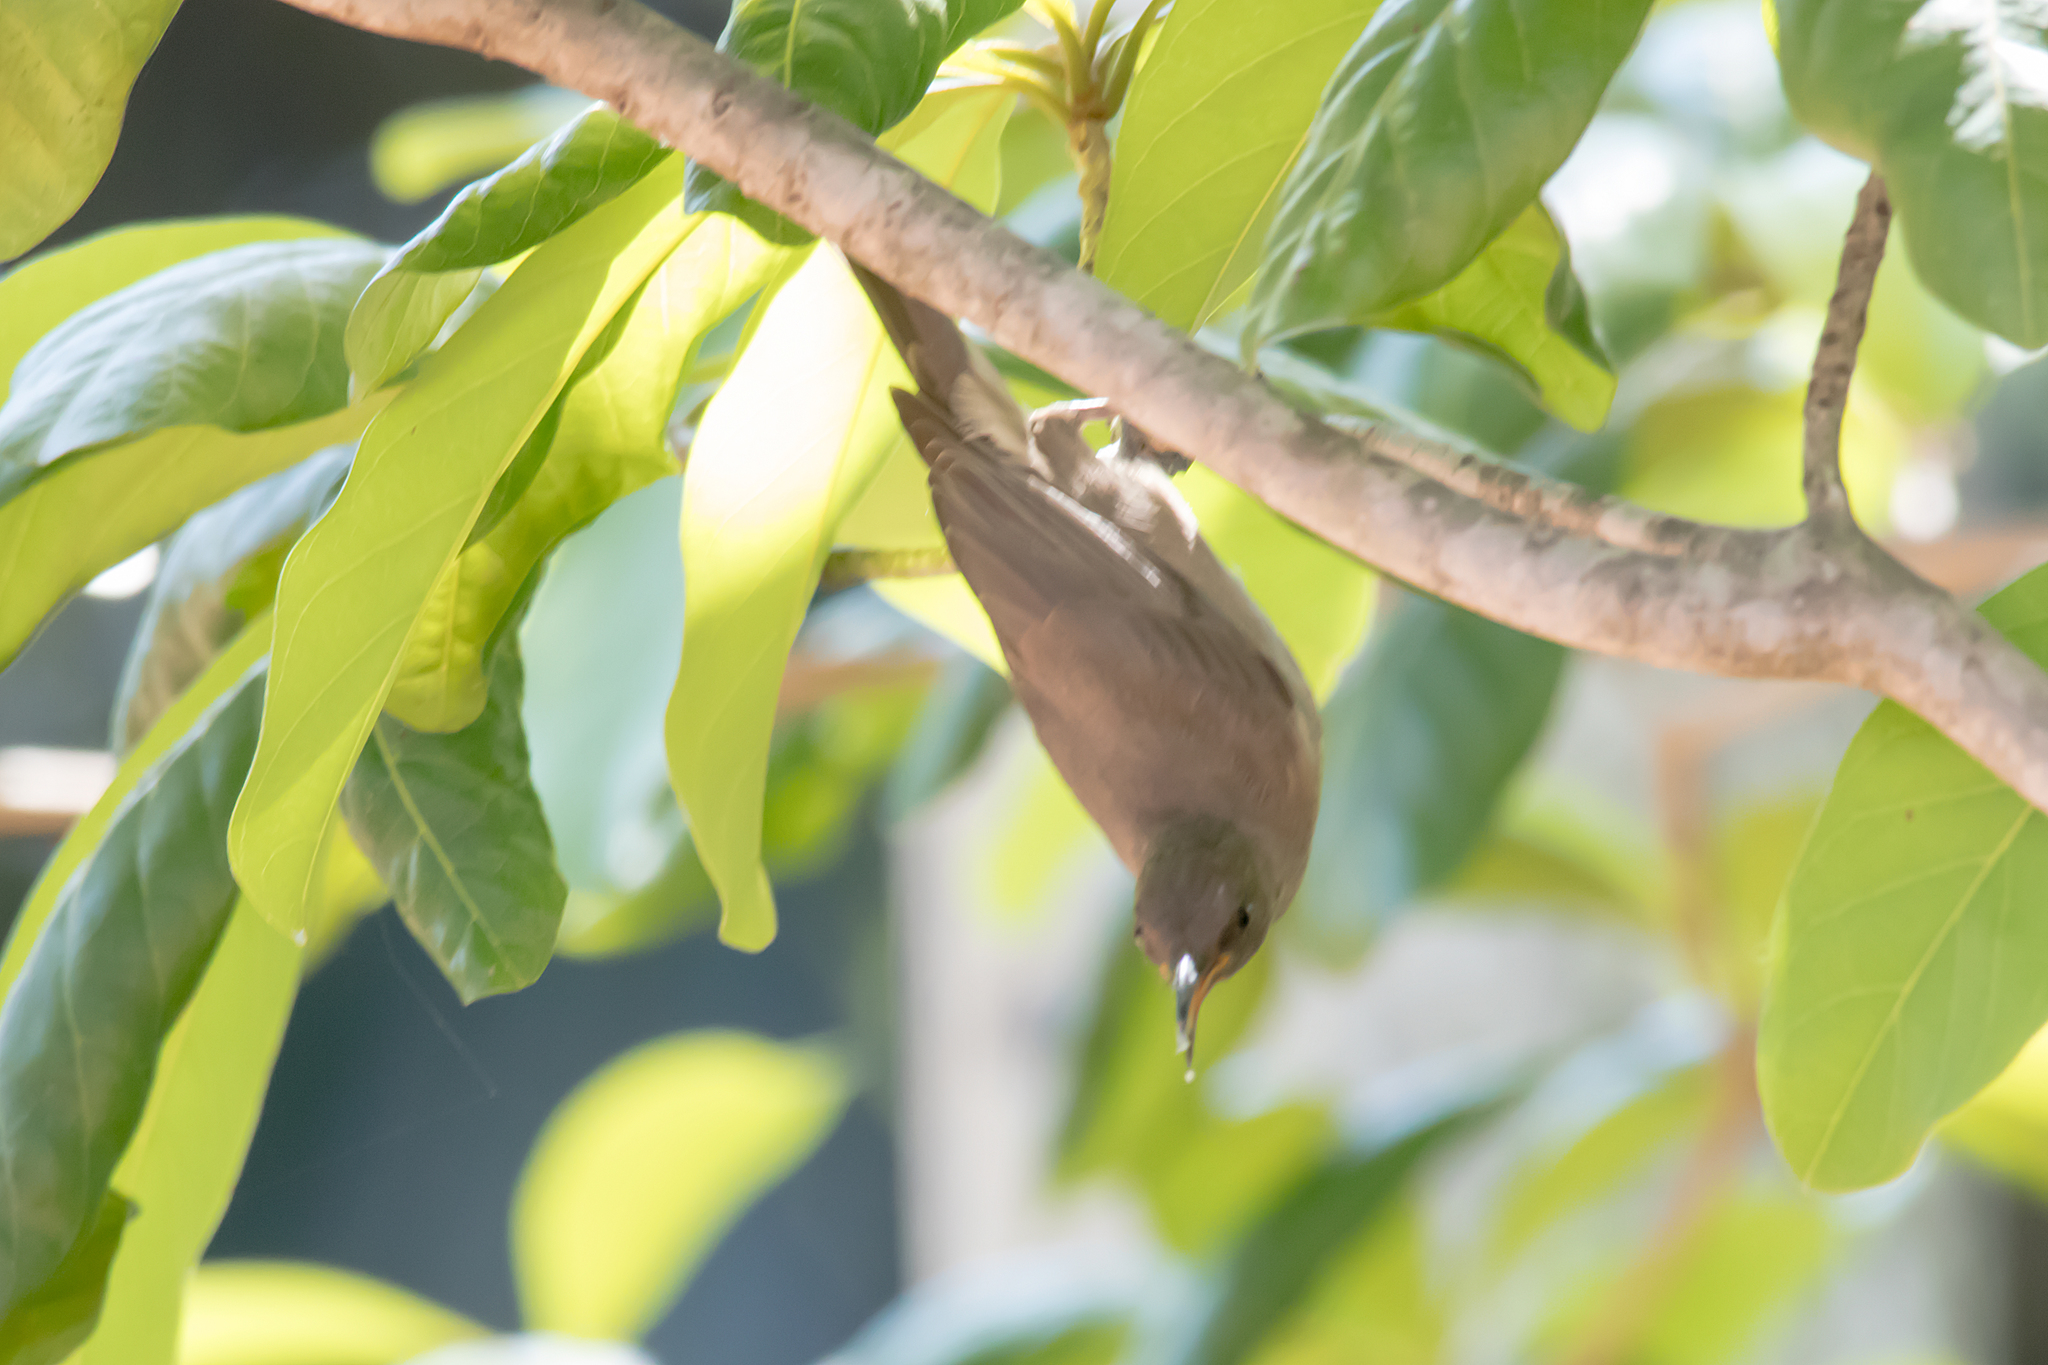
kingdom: Animalia
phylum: Chordata
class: Aves
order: Passeriformes
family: Meliphagidae
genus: Myzomela
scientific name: Myzomela obscura
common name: Dusky myzomela
